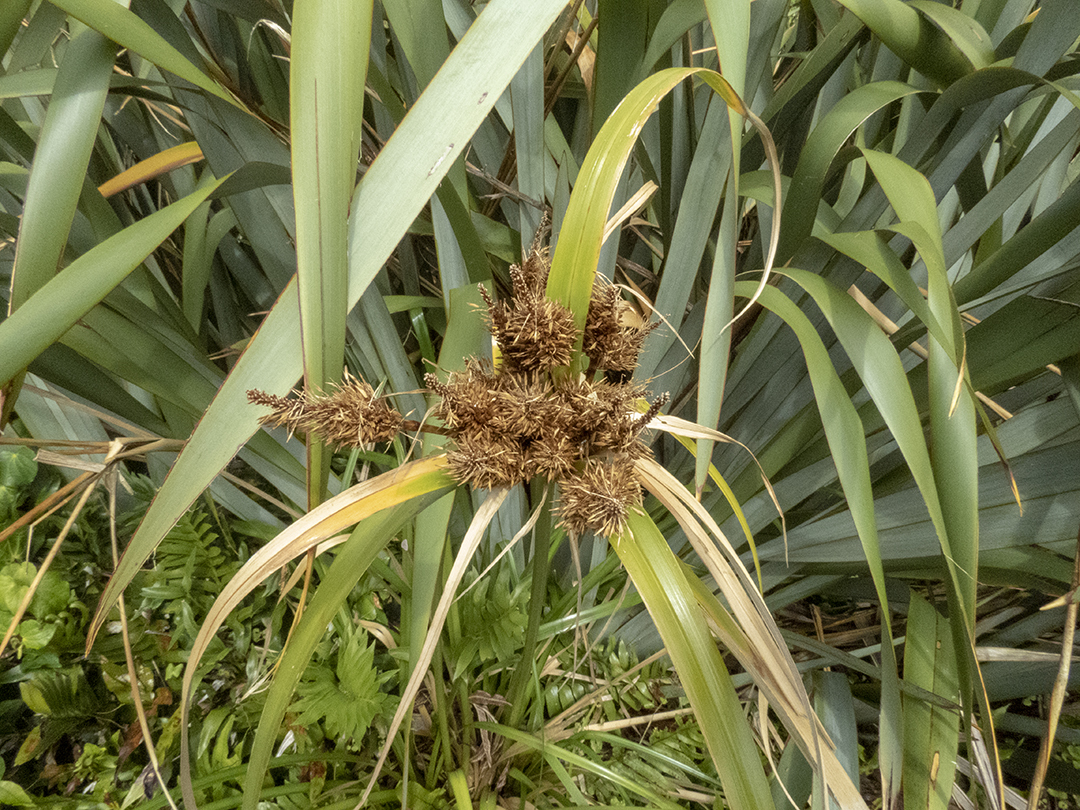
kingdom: Plantae
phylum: Tracheophyta
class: Liliopsida
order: Poales
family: Cyperaceae
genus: Cyperus
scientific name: Cyperus ustulatus
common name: Giant umbrella-sedge
